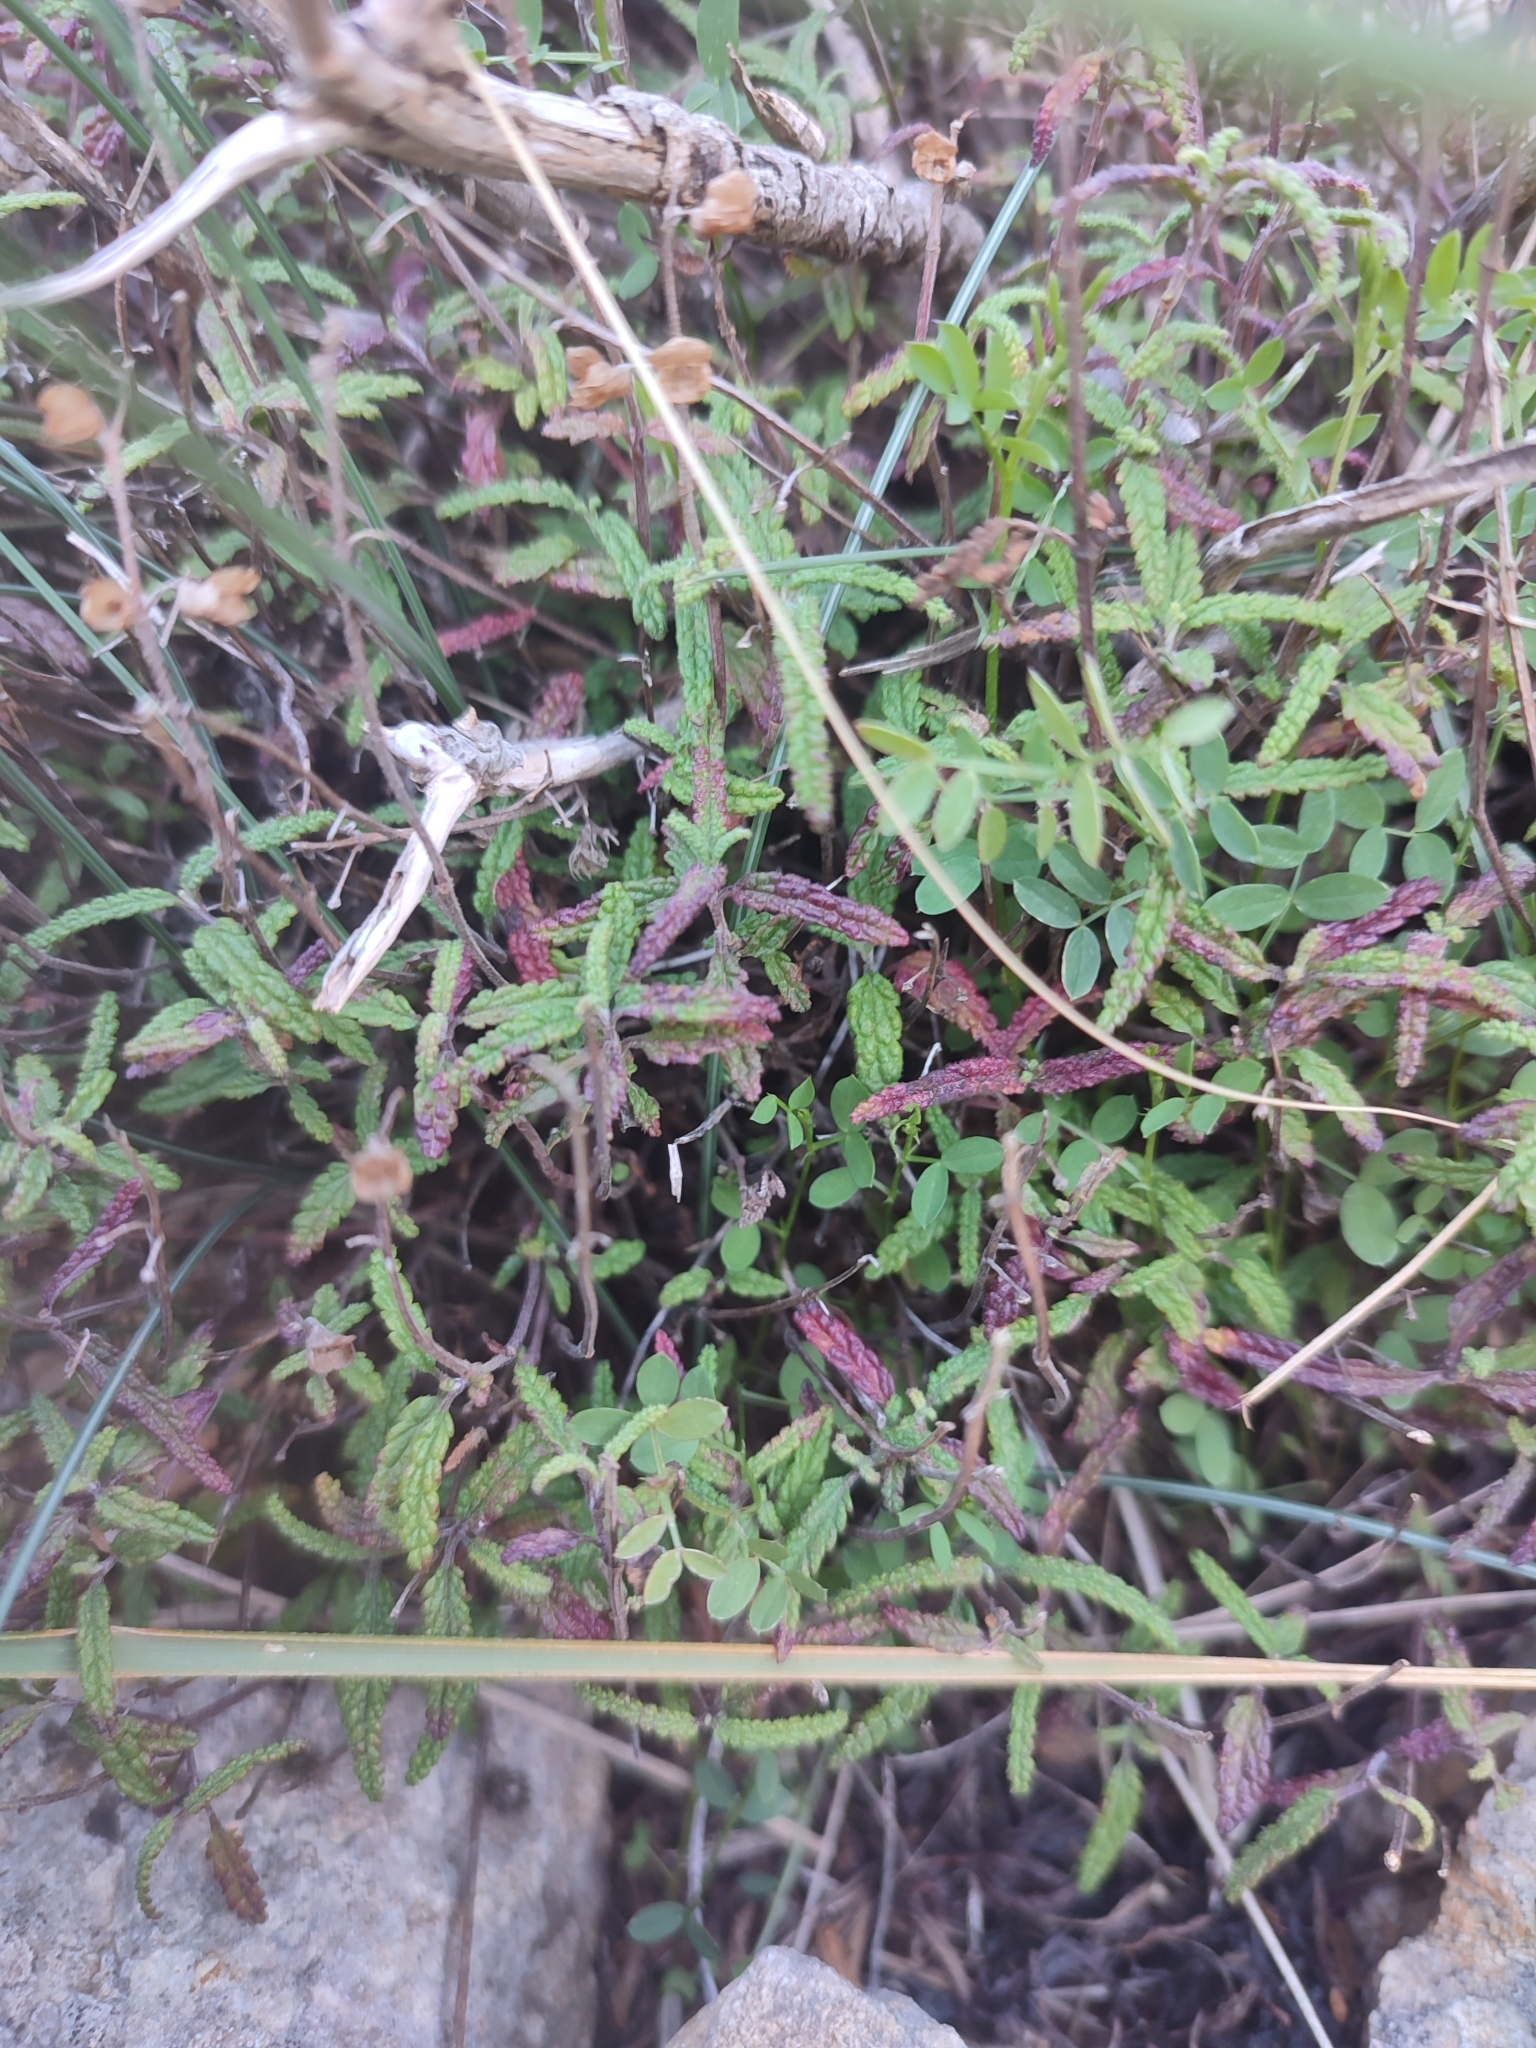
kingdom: Plantae
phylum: Tracheophyta
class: Magnoliopsida
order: Lamiales
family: Lamiaceae
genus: Teucrium
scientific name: Teucrium asiaticum
